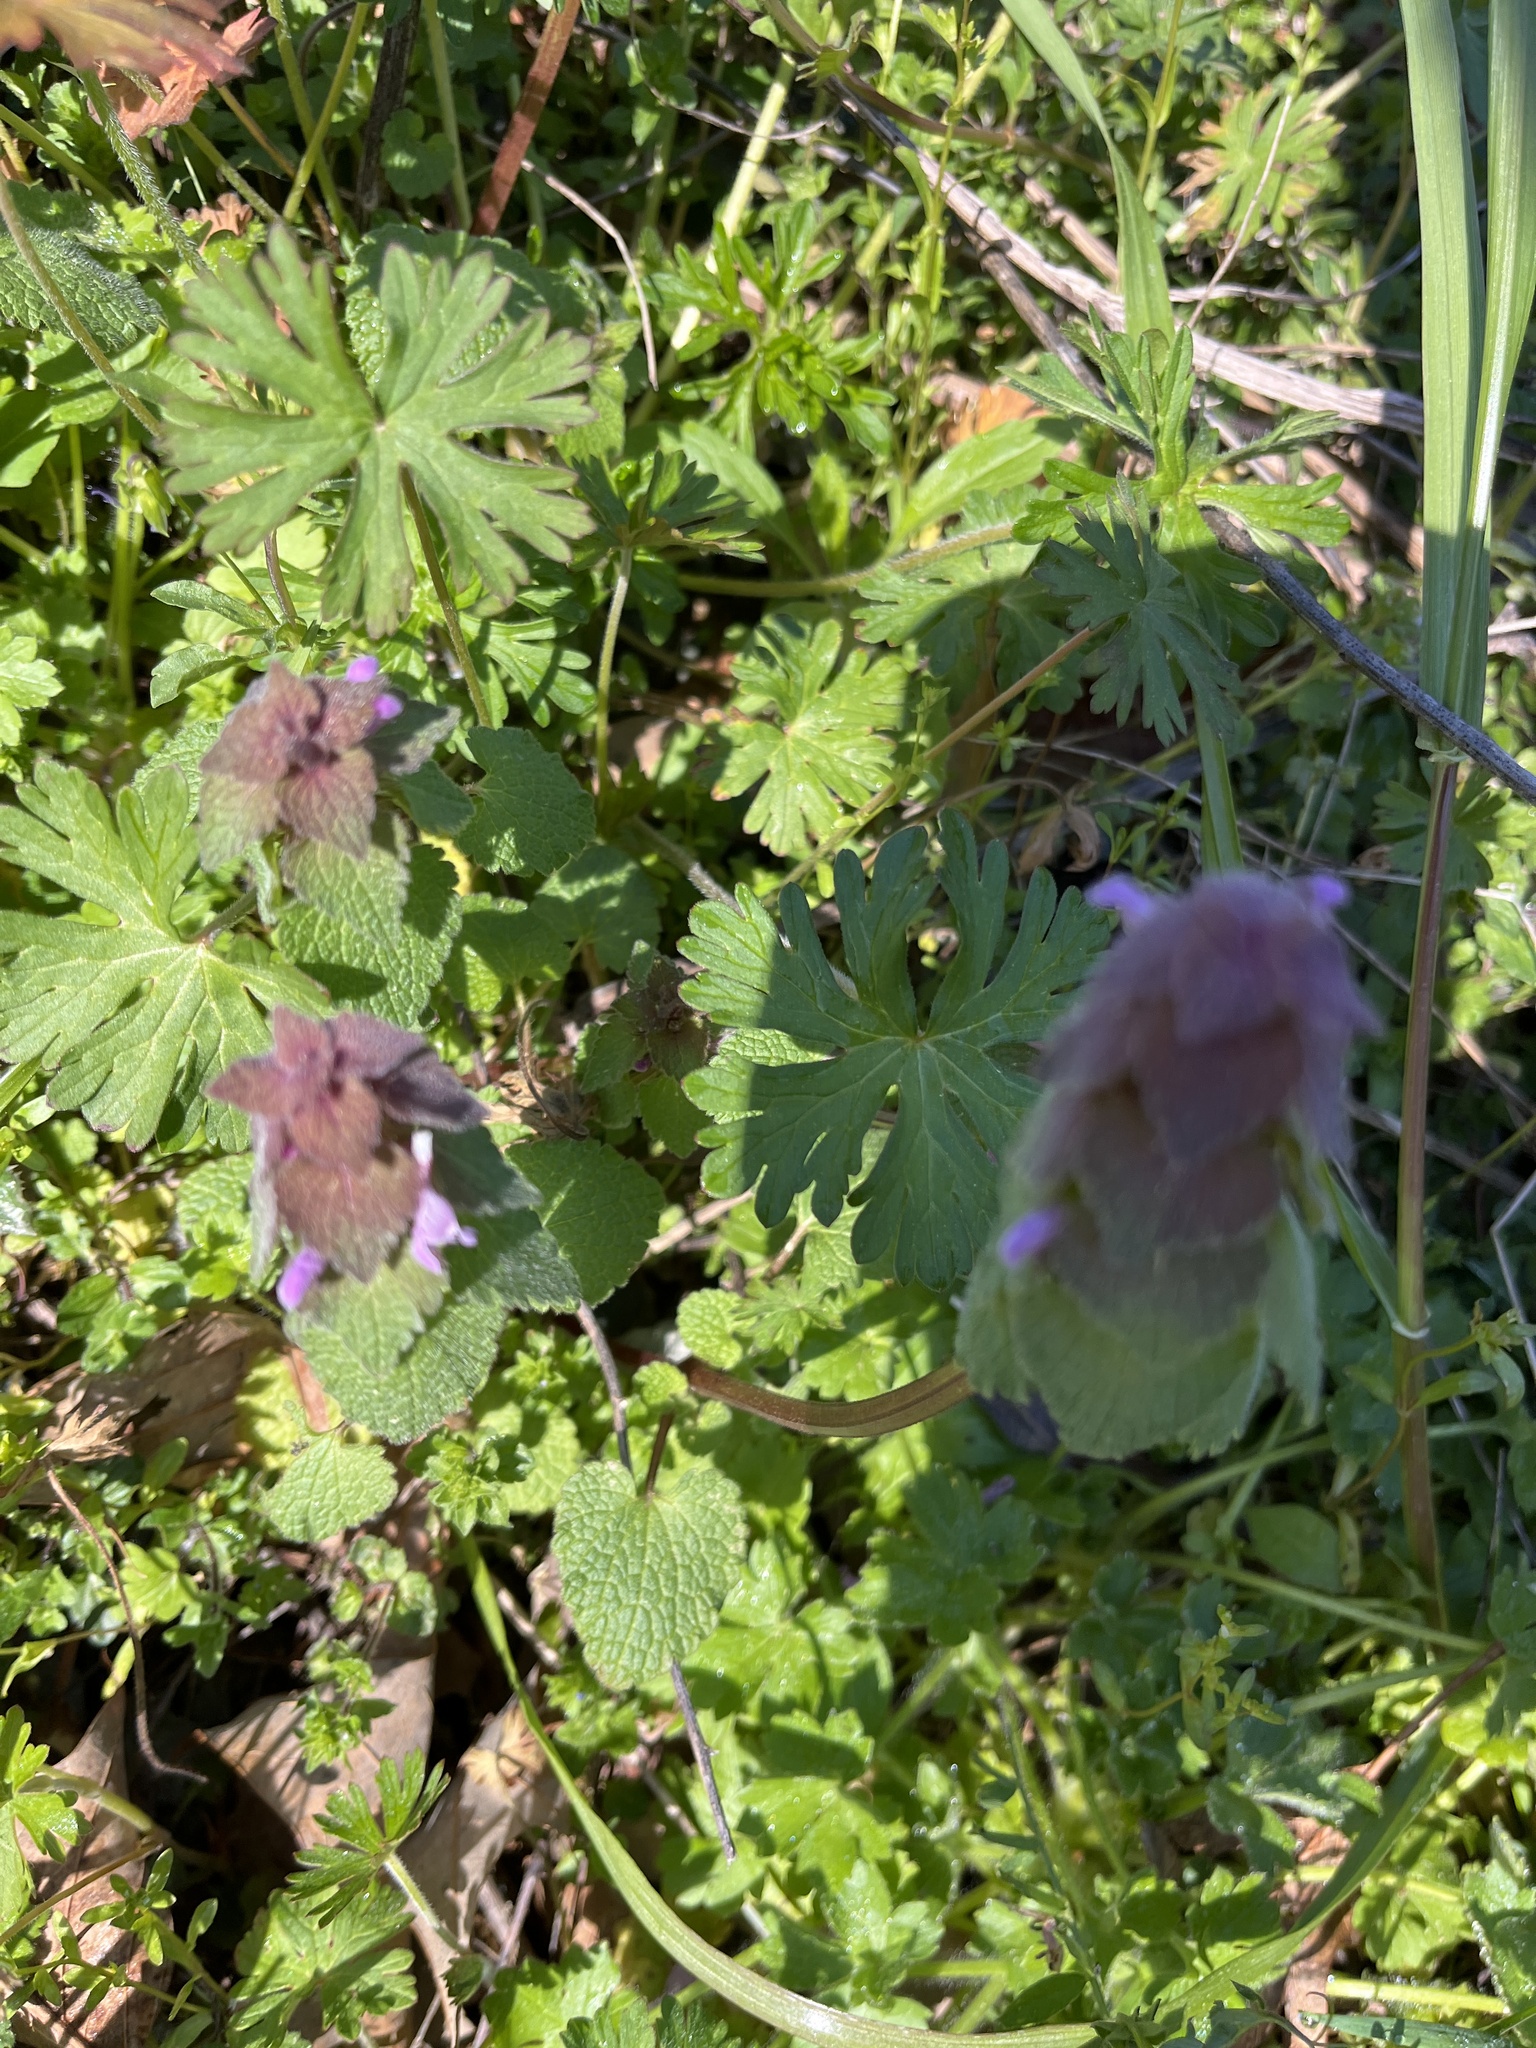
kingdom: Plantae
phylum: Tracheophyta
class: Magnoliopsida
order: Lamiales
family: Lamiaceae
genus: Lamium
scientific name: Lamium purpureum
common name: Red dead-nettle
